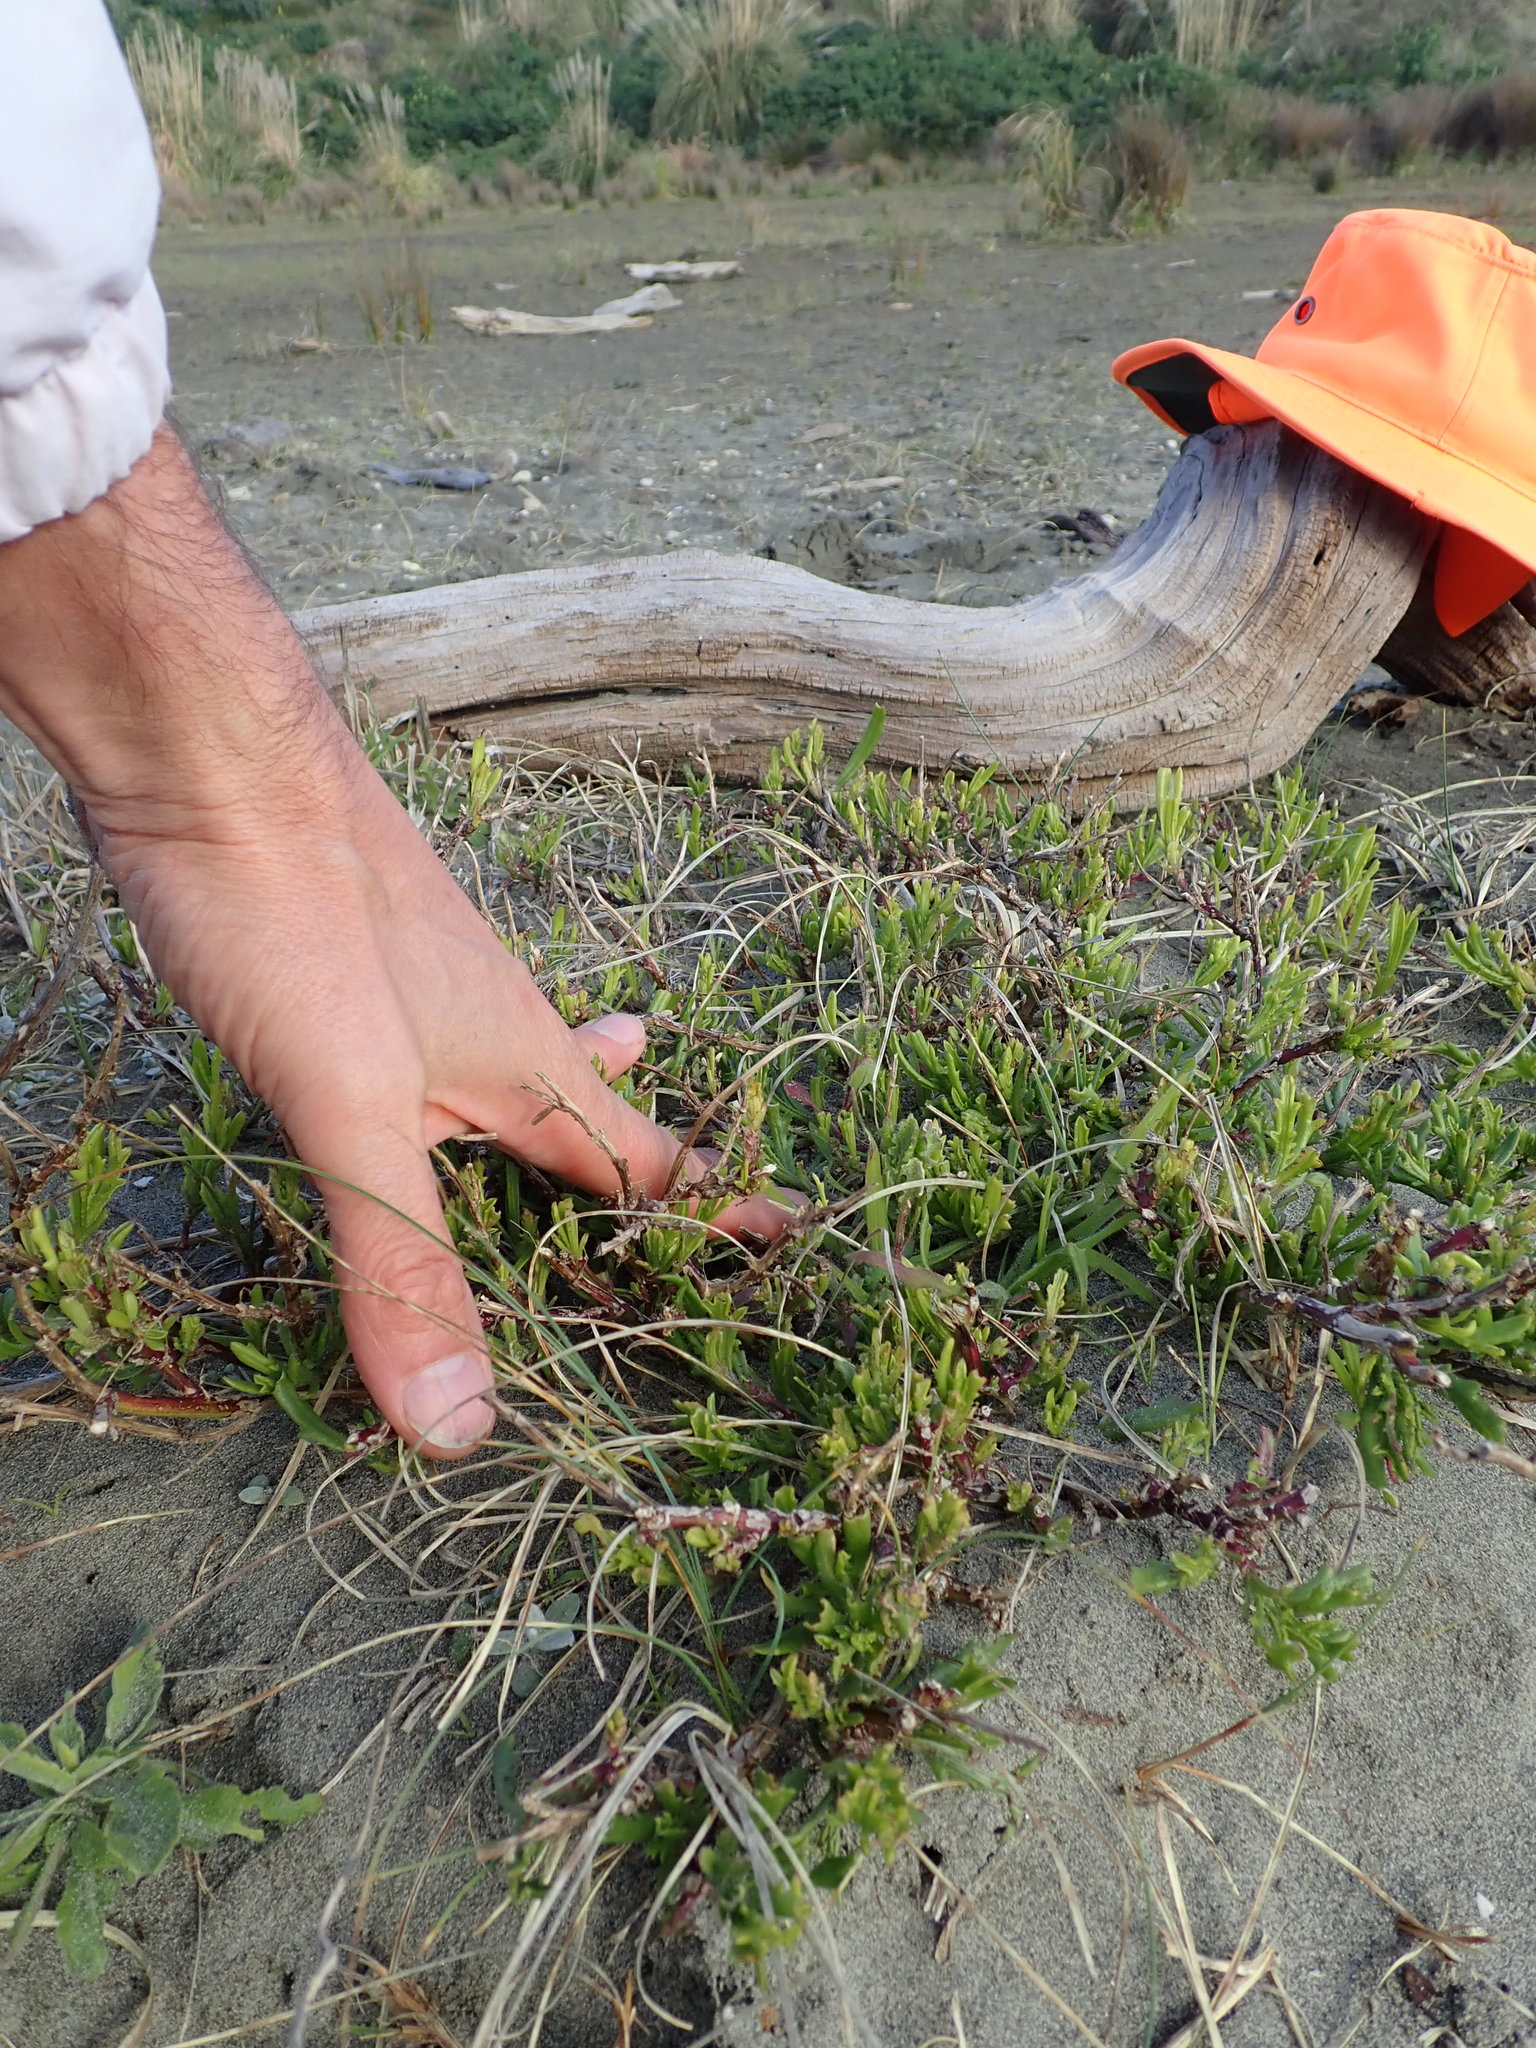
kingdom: Plantae
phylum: Tracheophyta
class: Magnoliopsida
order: Asterales
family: Asteraceae
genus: Cotula
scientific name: Cotula coronopifolia
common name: Buttonweed
